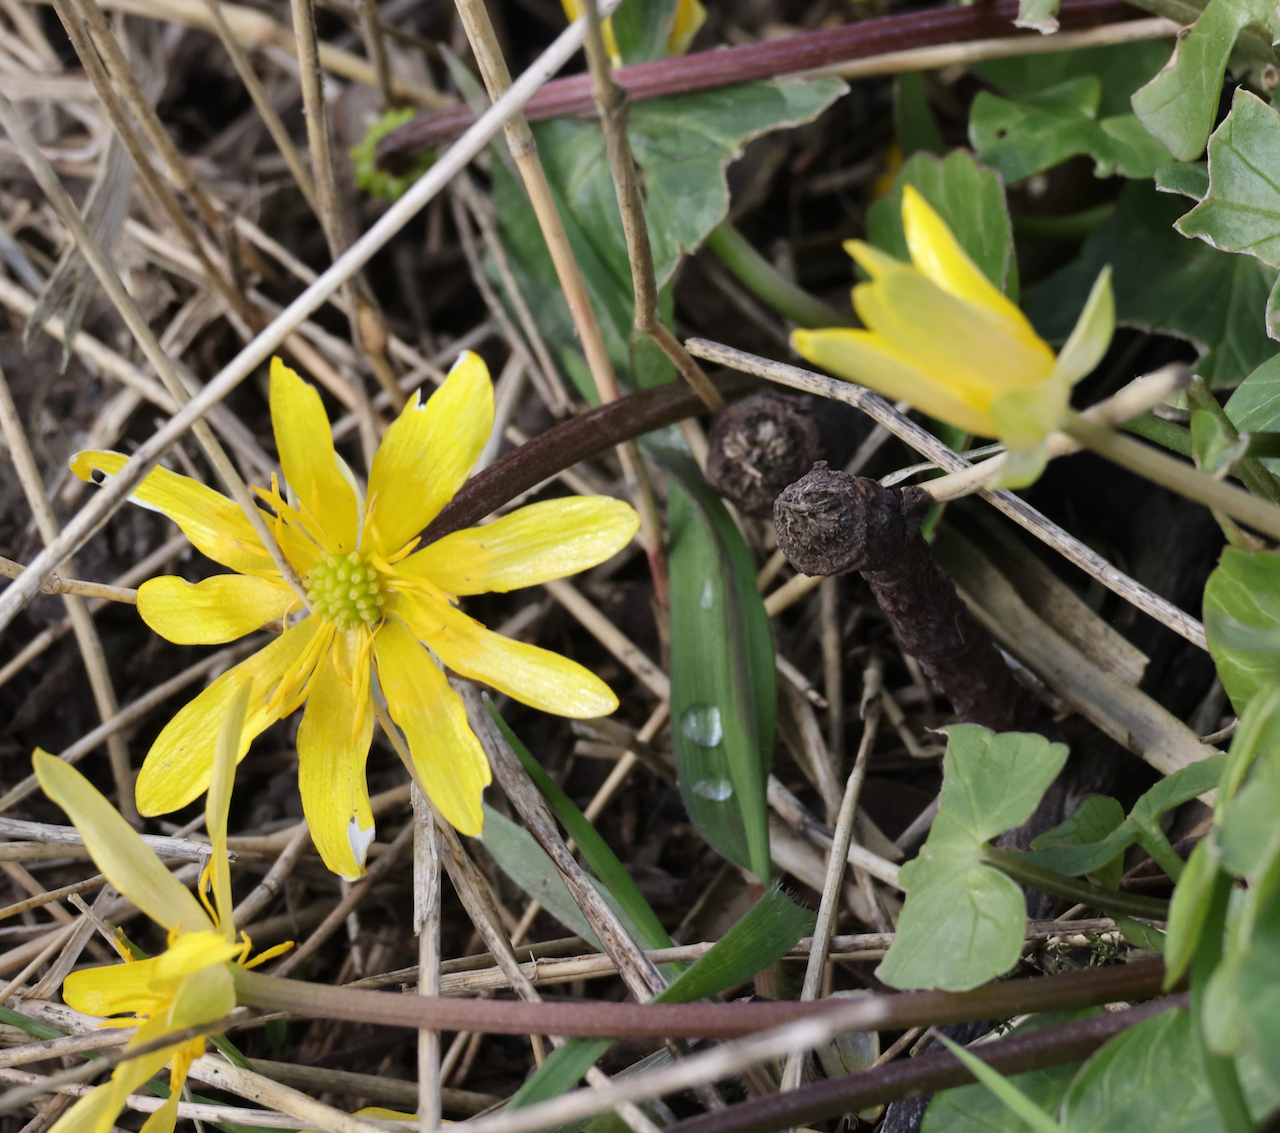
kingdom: Plantae
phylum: Tracheophyta
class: Magnoliopsida
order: Ranunculales
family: Ranunculaceae
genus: Ficaria
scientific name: Ficaria verna
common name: Lesser celandine
